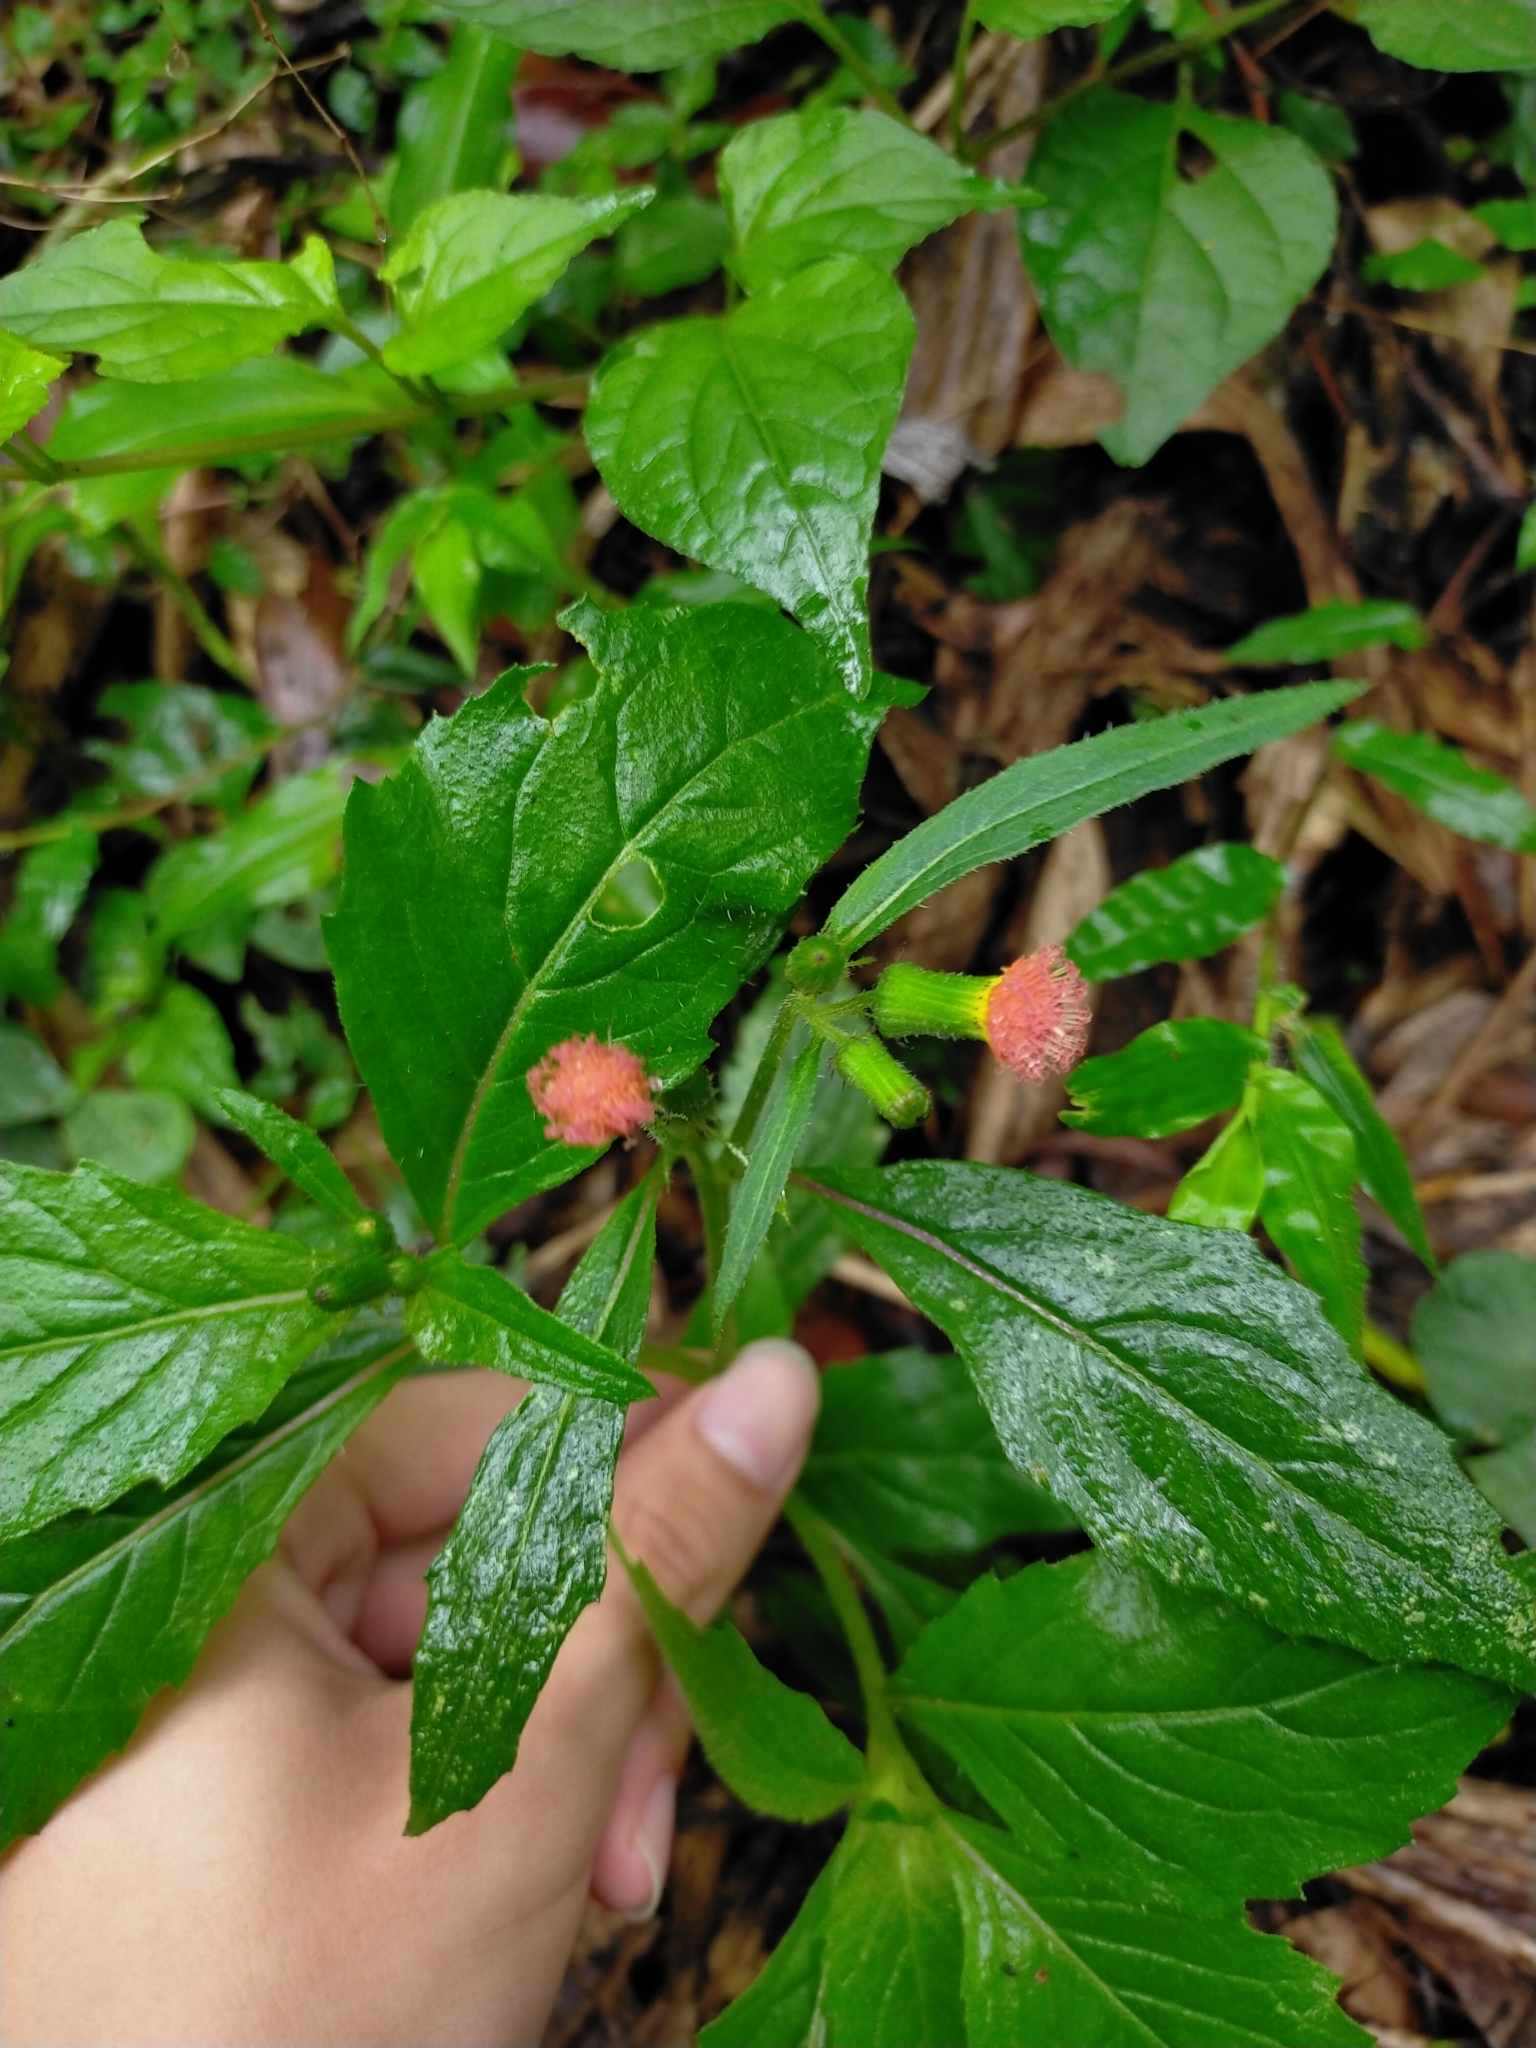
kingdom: Plantae
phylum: Tracheophyta
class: Magnoliopsida
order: Asterales
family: Asteraceae
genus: Crassocephalum
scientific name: Crassocephalum crepidioides
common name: Redflower ragleaf
